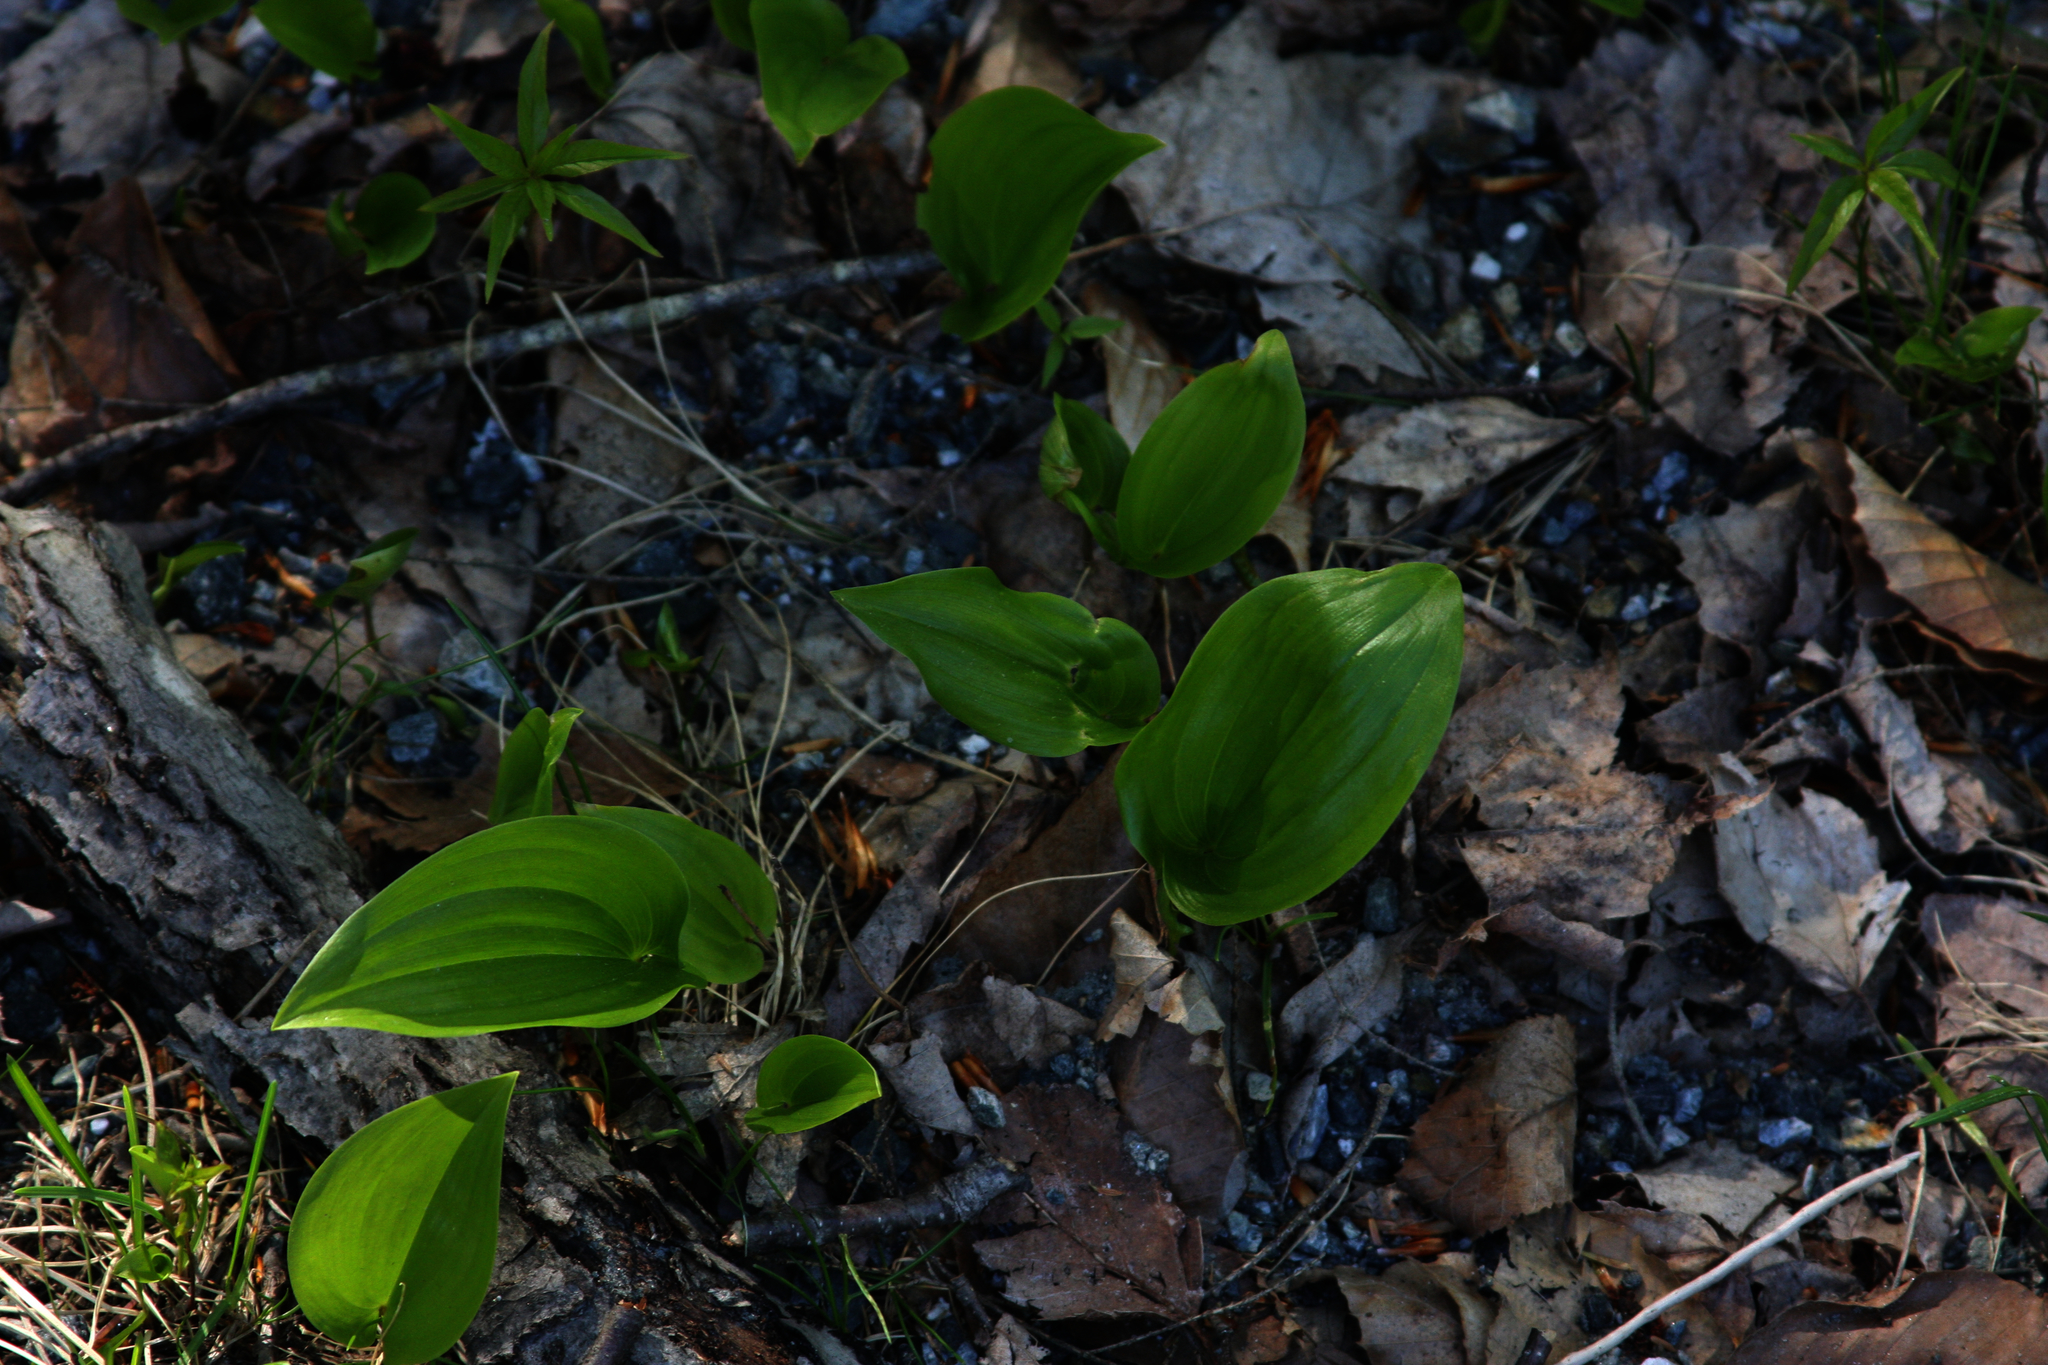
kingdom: Plantae
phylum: Tracheophyta
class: Liliopsida
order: Asparagales
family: Asparagaceae
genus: Maianthemum
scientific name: Maianthemum canadense
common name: False lily-of-the-valley
